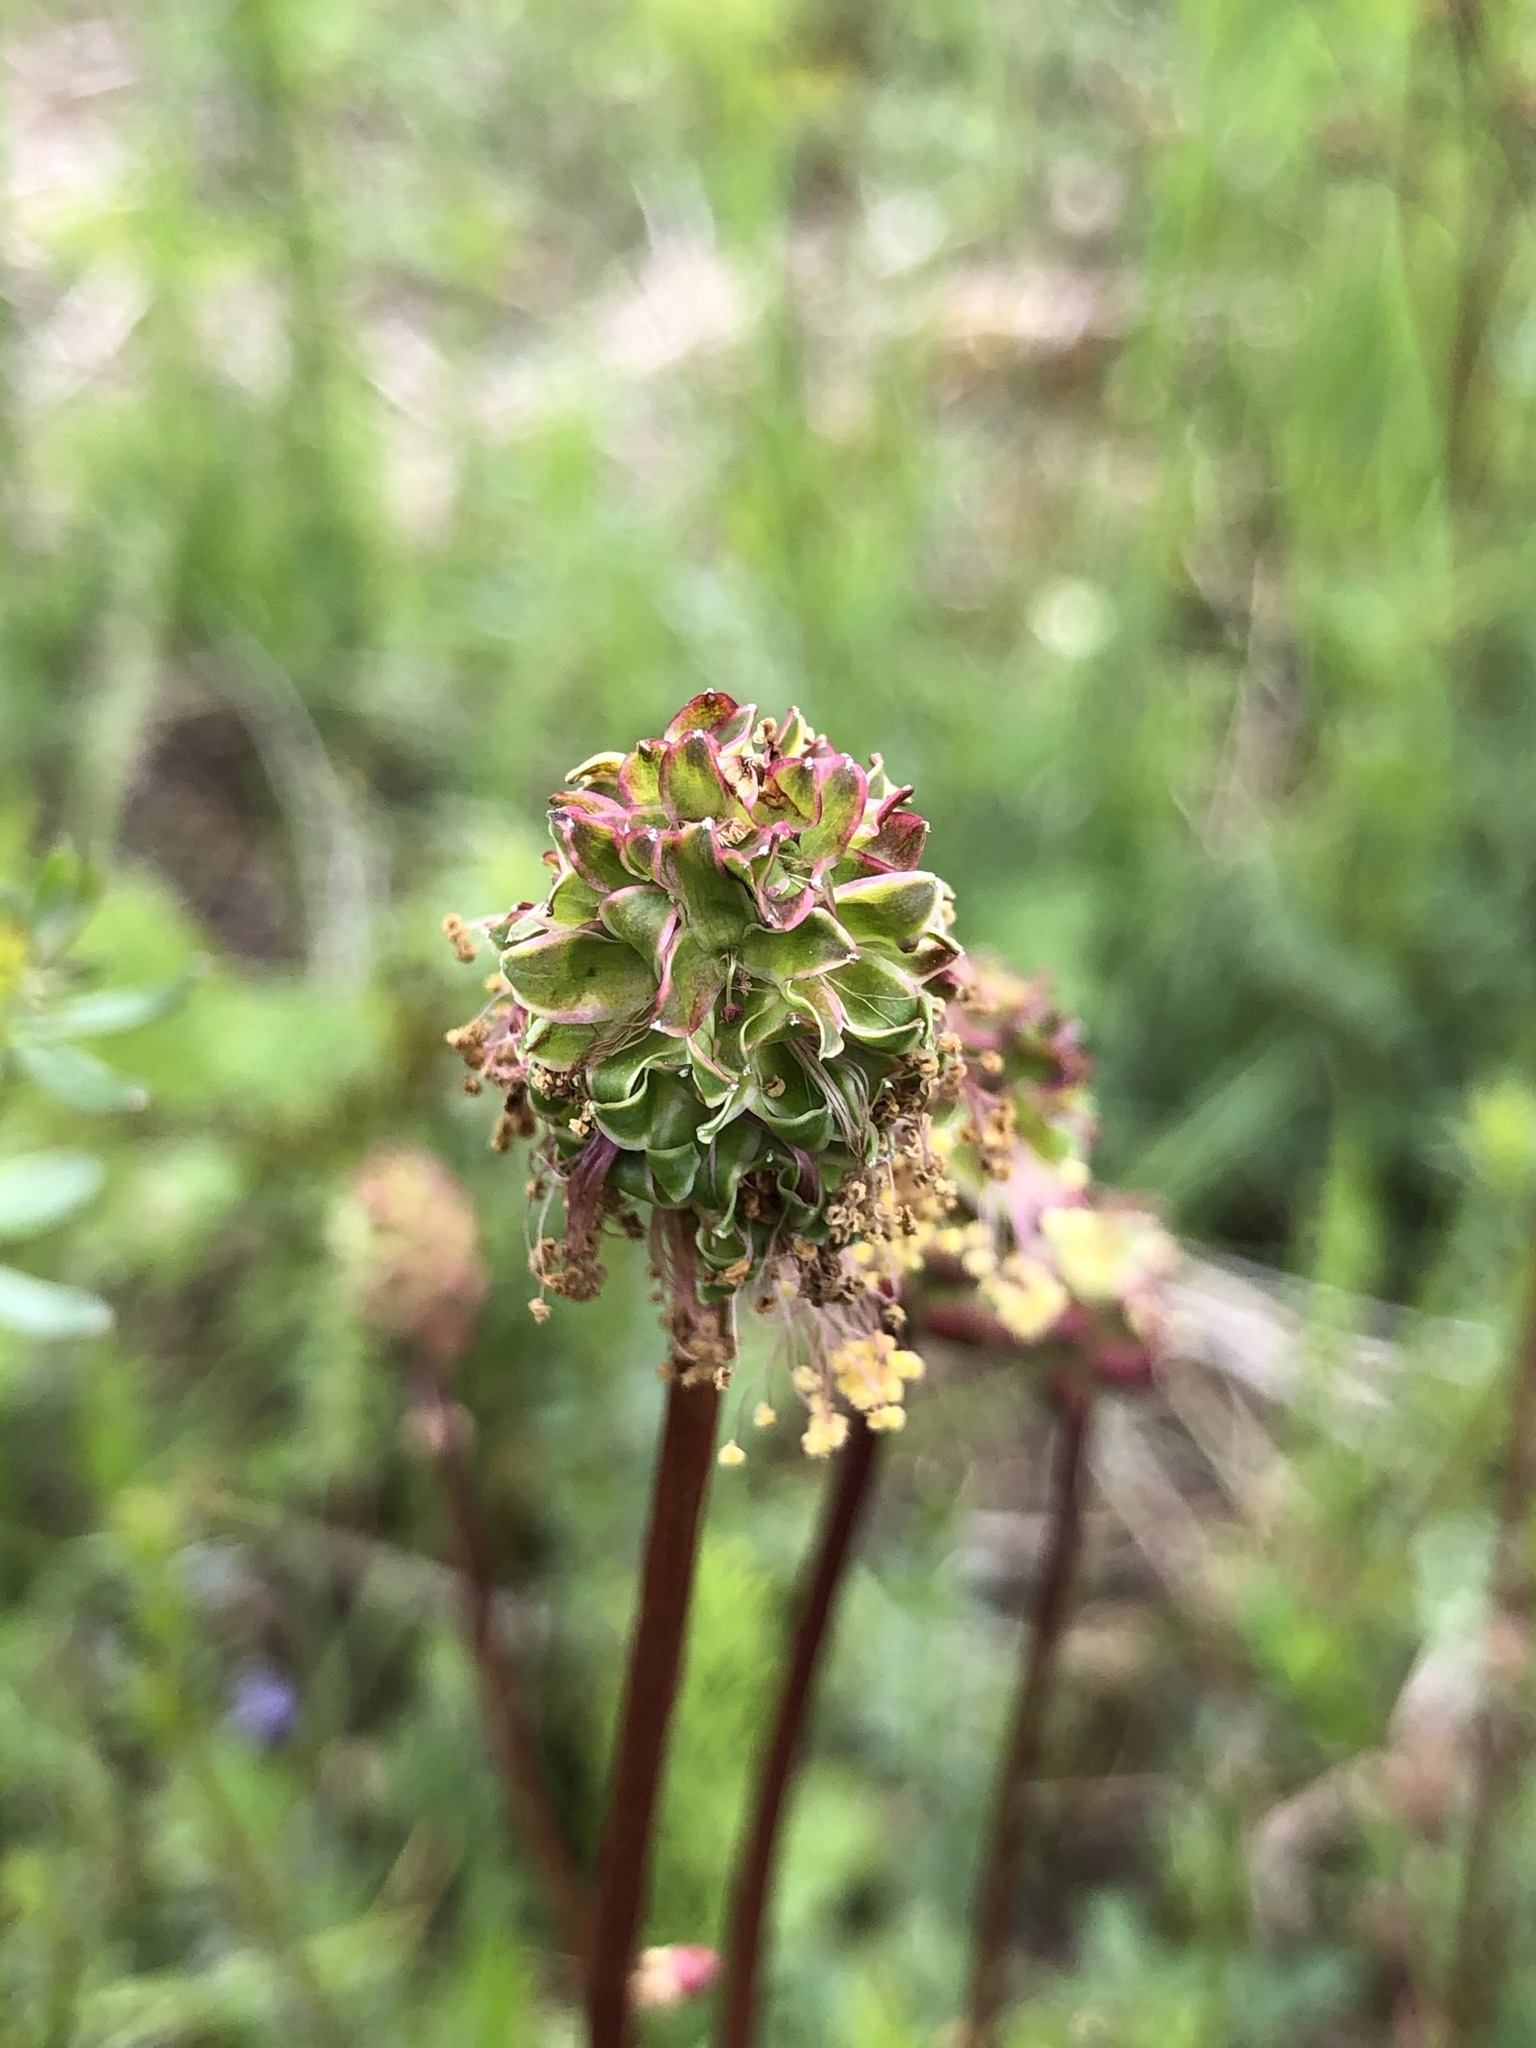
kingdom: Plantae
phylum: Tracheophyta
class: Magnoliopsida
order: Rosales
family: Rosaceae
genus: Poterium
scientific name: Poterium sanguisorba
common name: Salad burnet
